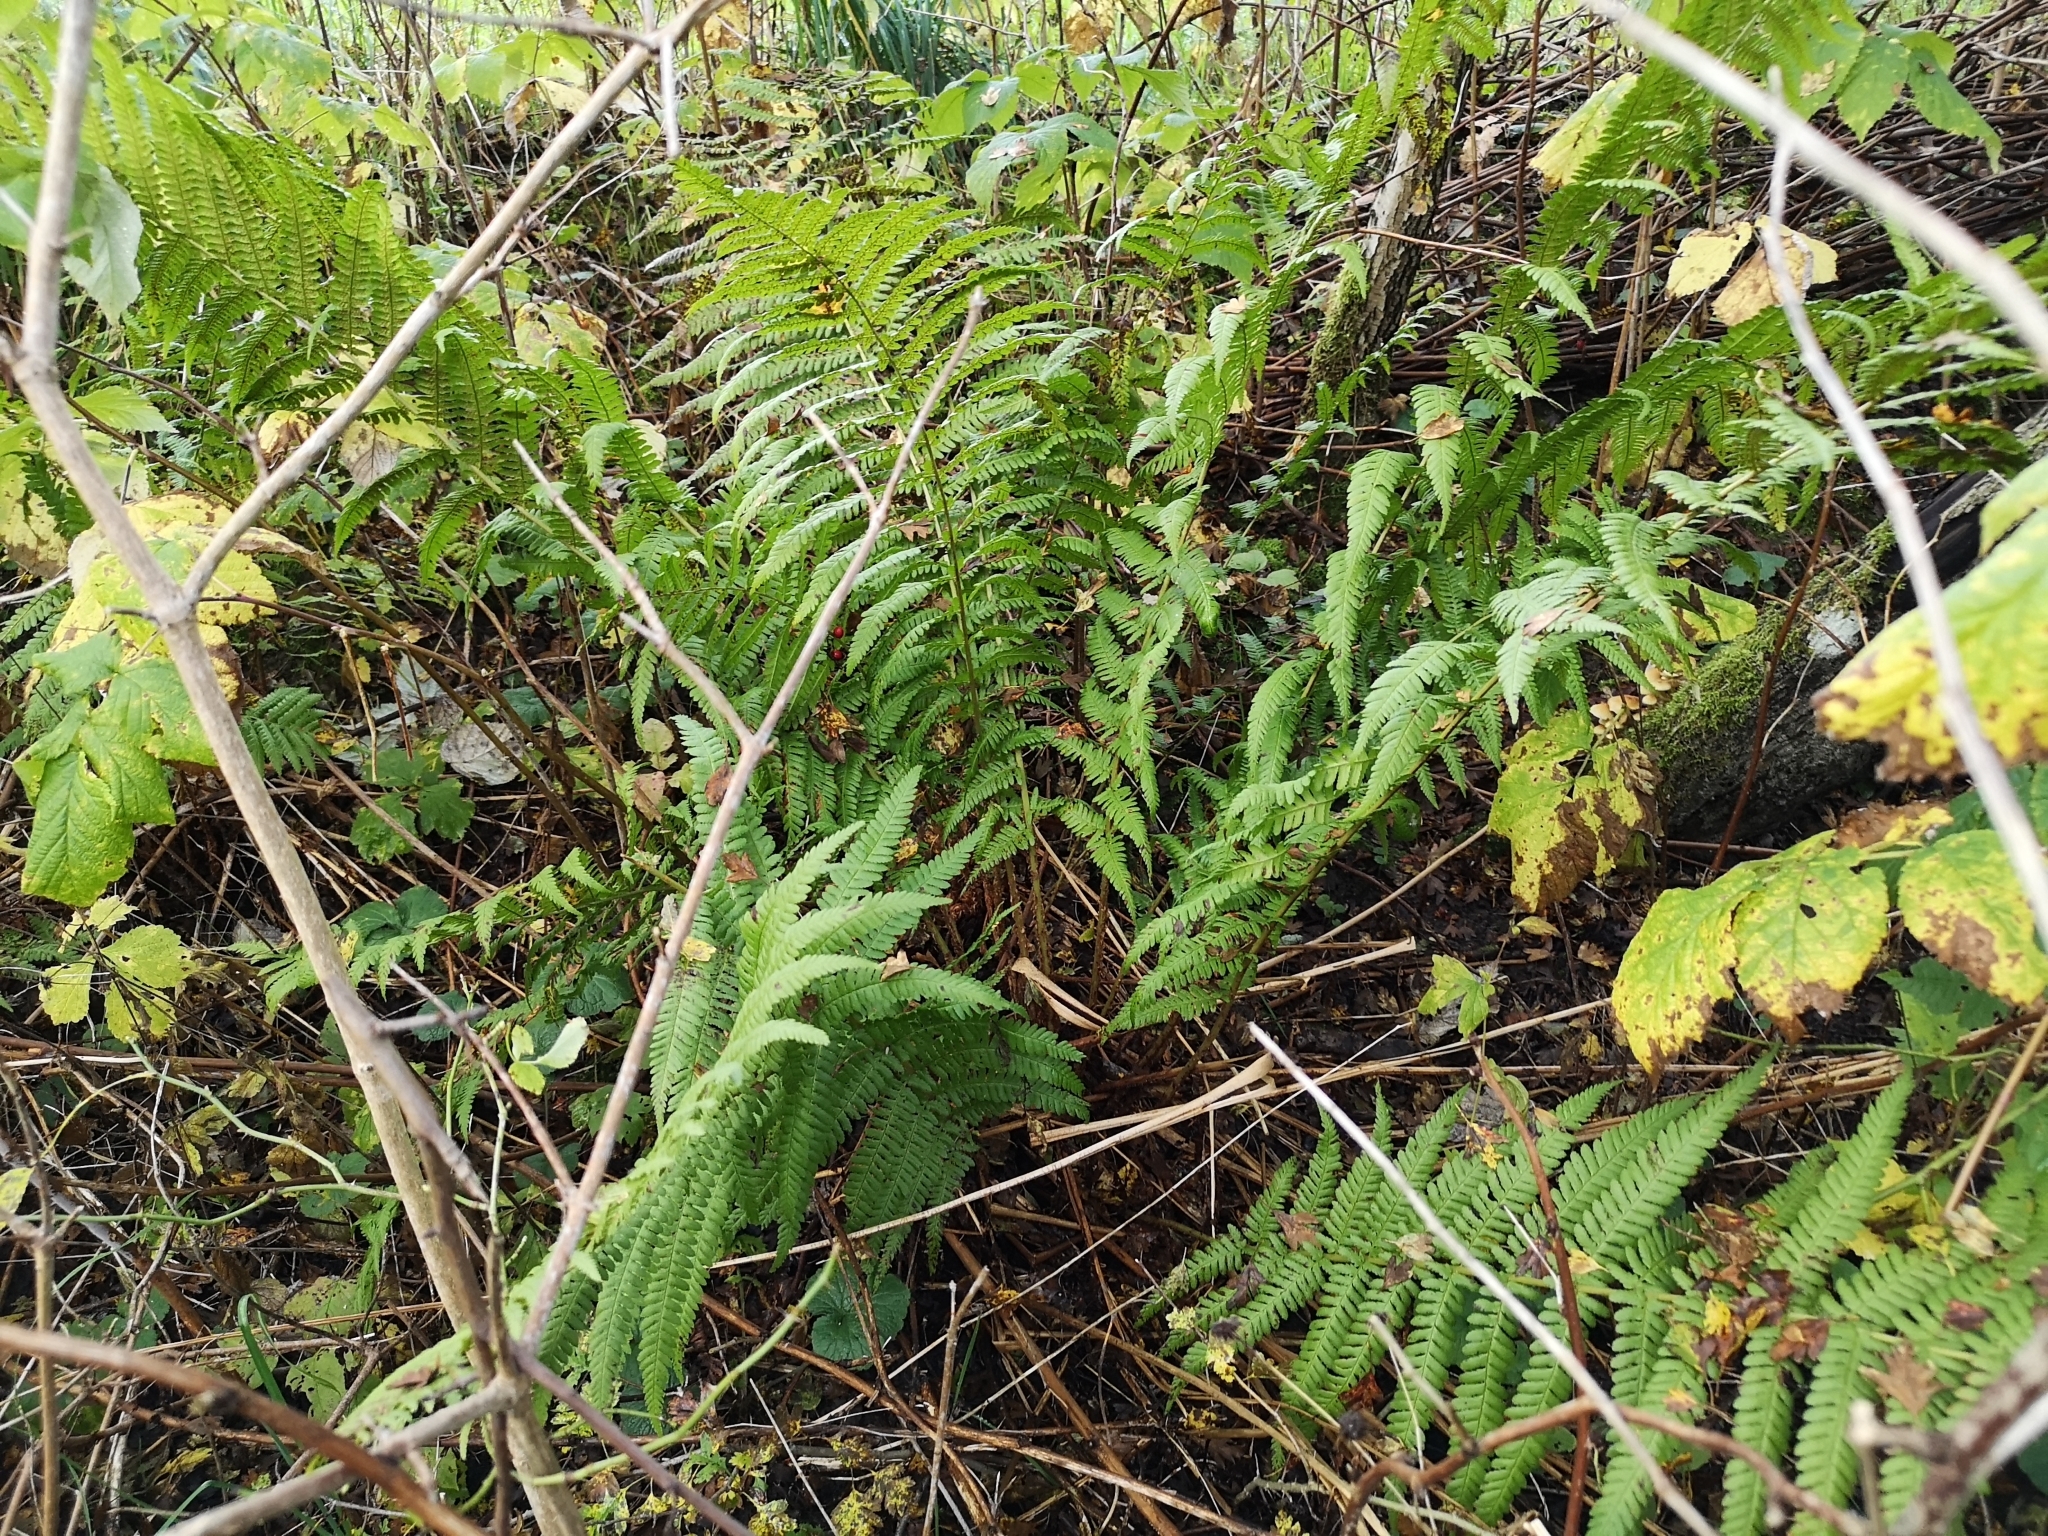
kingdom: Plantae
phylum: Tracheophyta
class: Polypodiopsida
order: Polypodiales
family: Dryopteridaceae
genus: Dryopteris
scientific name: Dryopteris filix-mas
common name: Male fern
